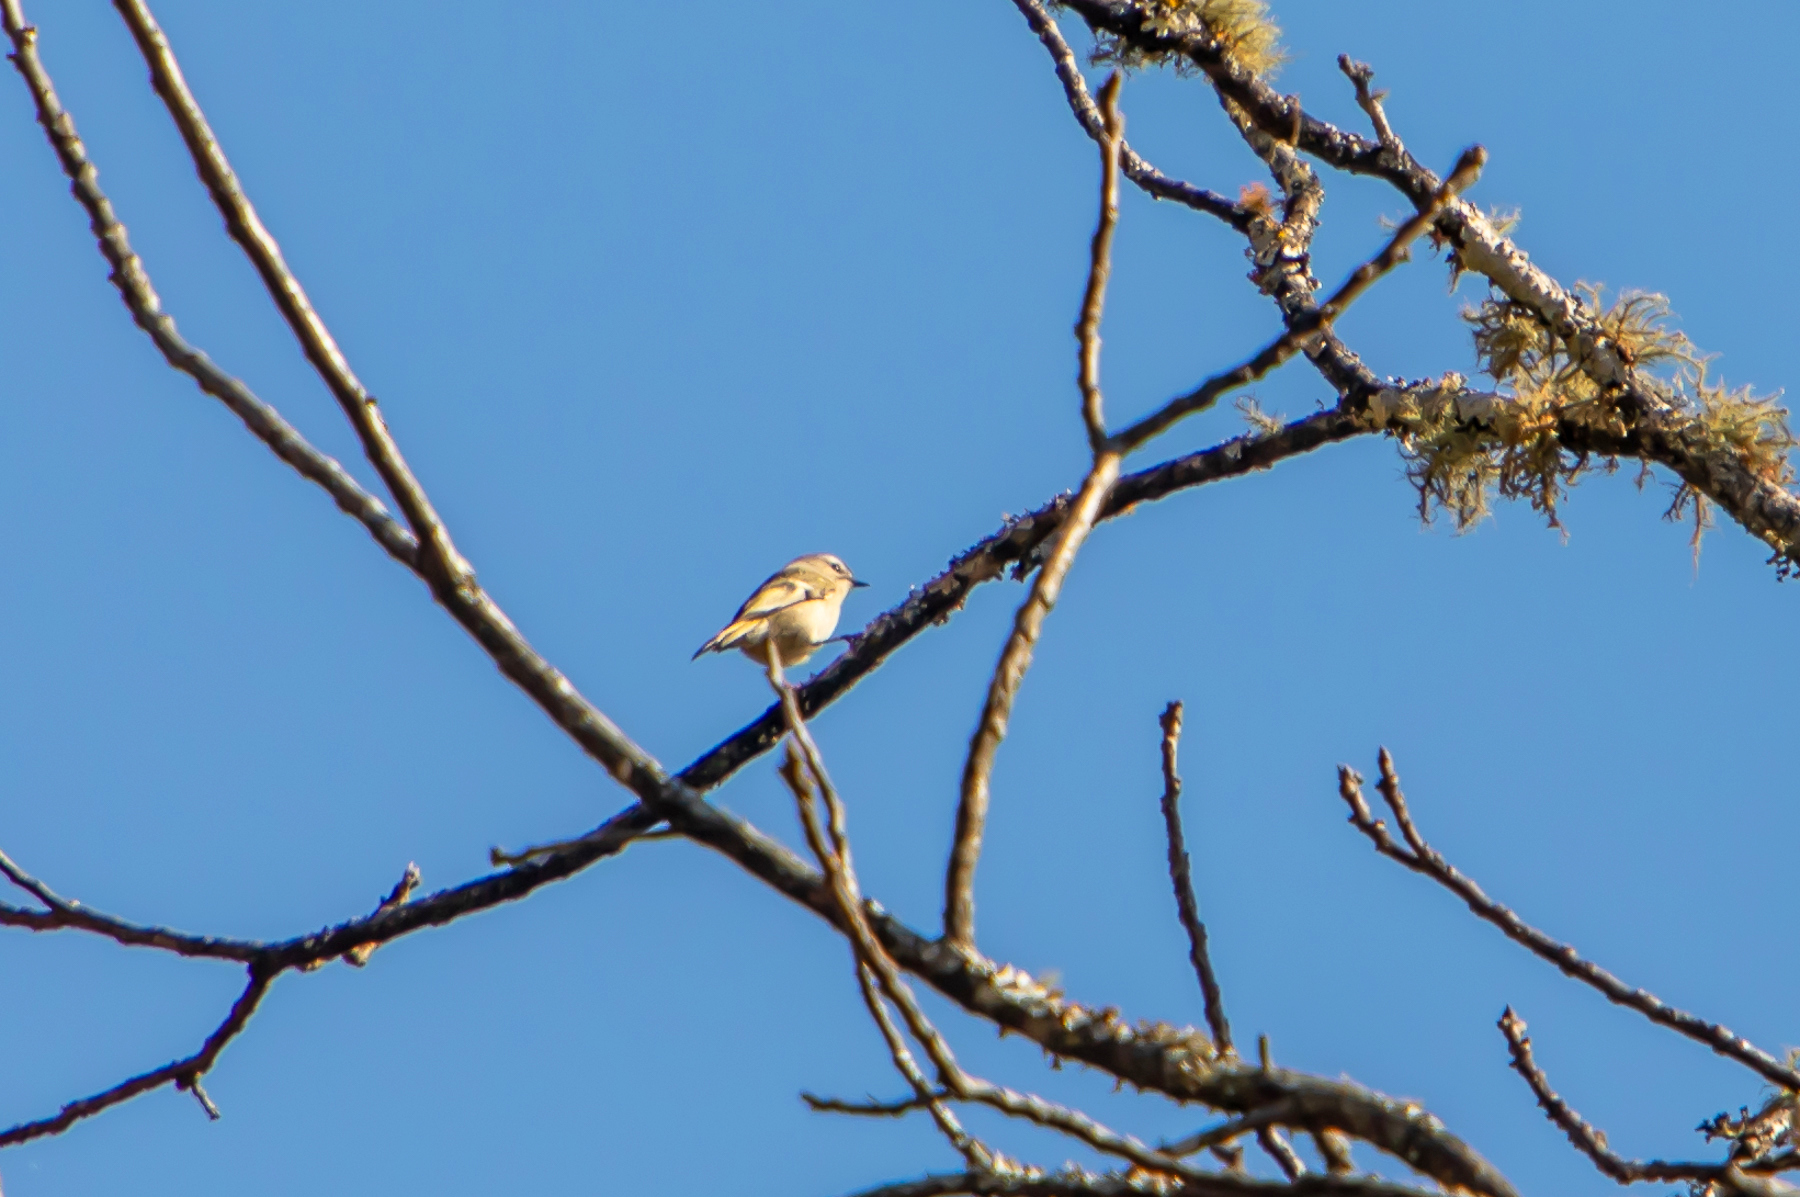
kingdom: Animalia
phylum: Chordata
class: Aves
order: Passeriformes
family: Regulidae
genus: Regulus
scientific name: Regulus satrapa
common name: Golden-crowned kinglet
